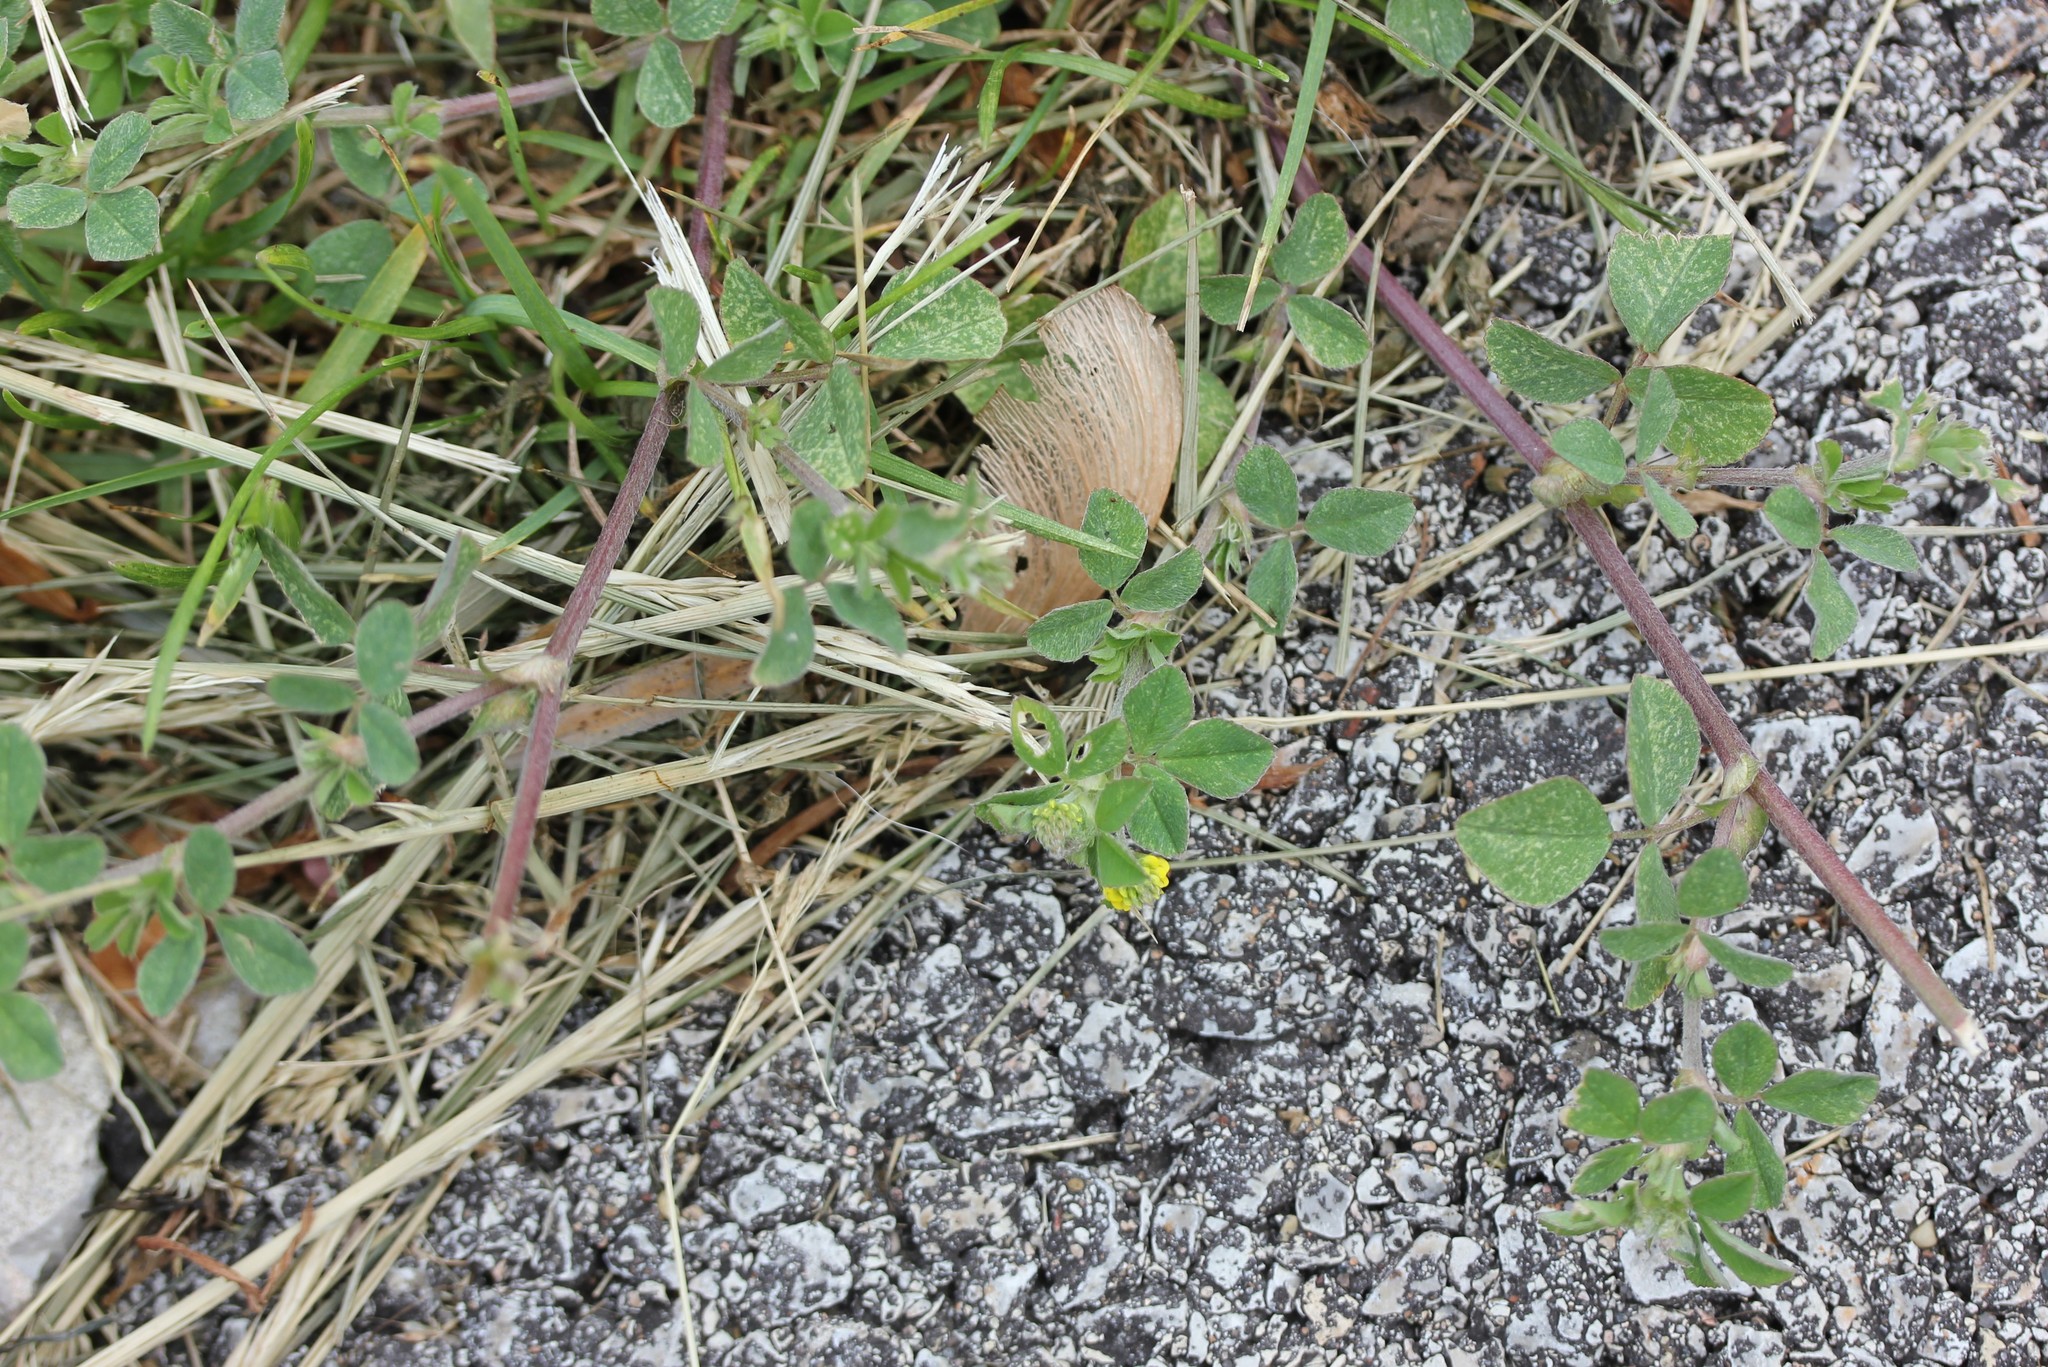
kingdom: Plantae
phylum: Tracheophyta
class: Magnoliopsida
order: Fabales
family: Fabaceae
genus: Medicago
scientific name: Medicago lupulina
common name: Black medick
